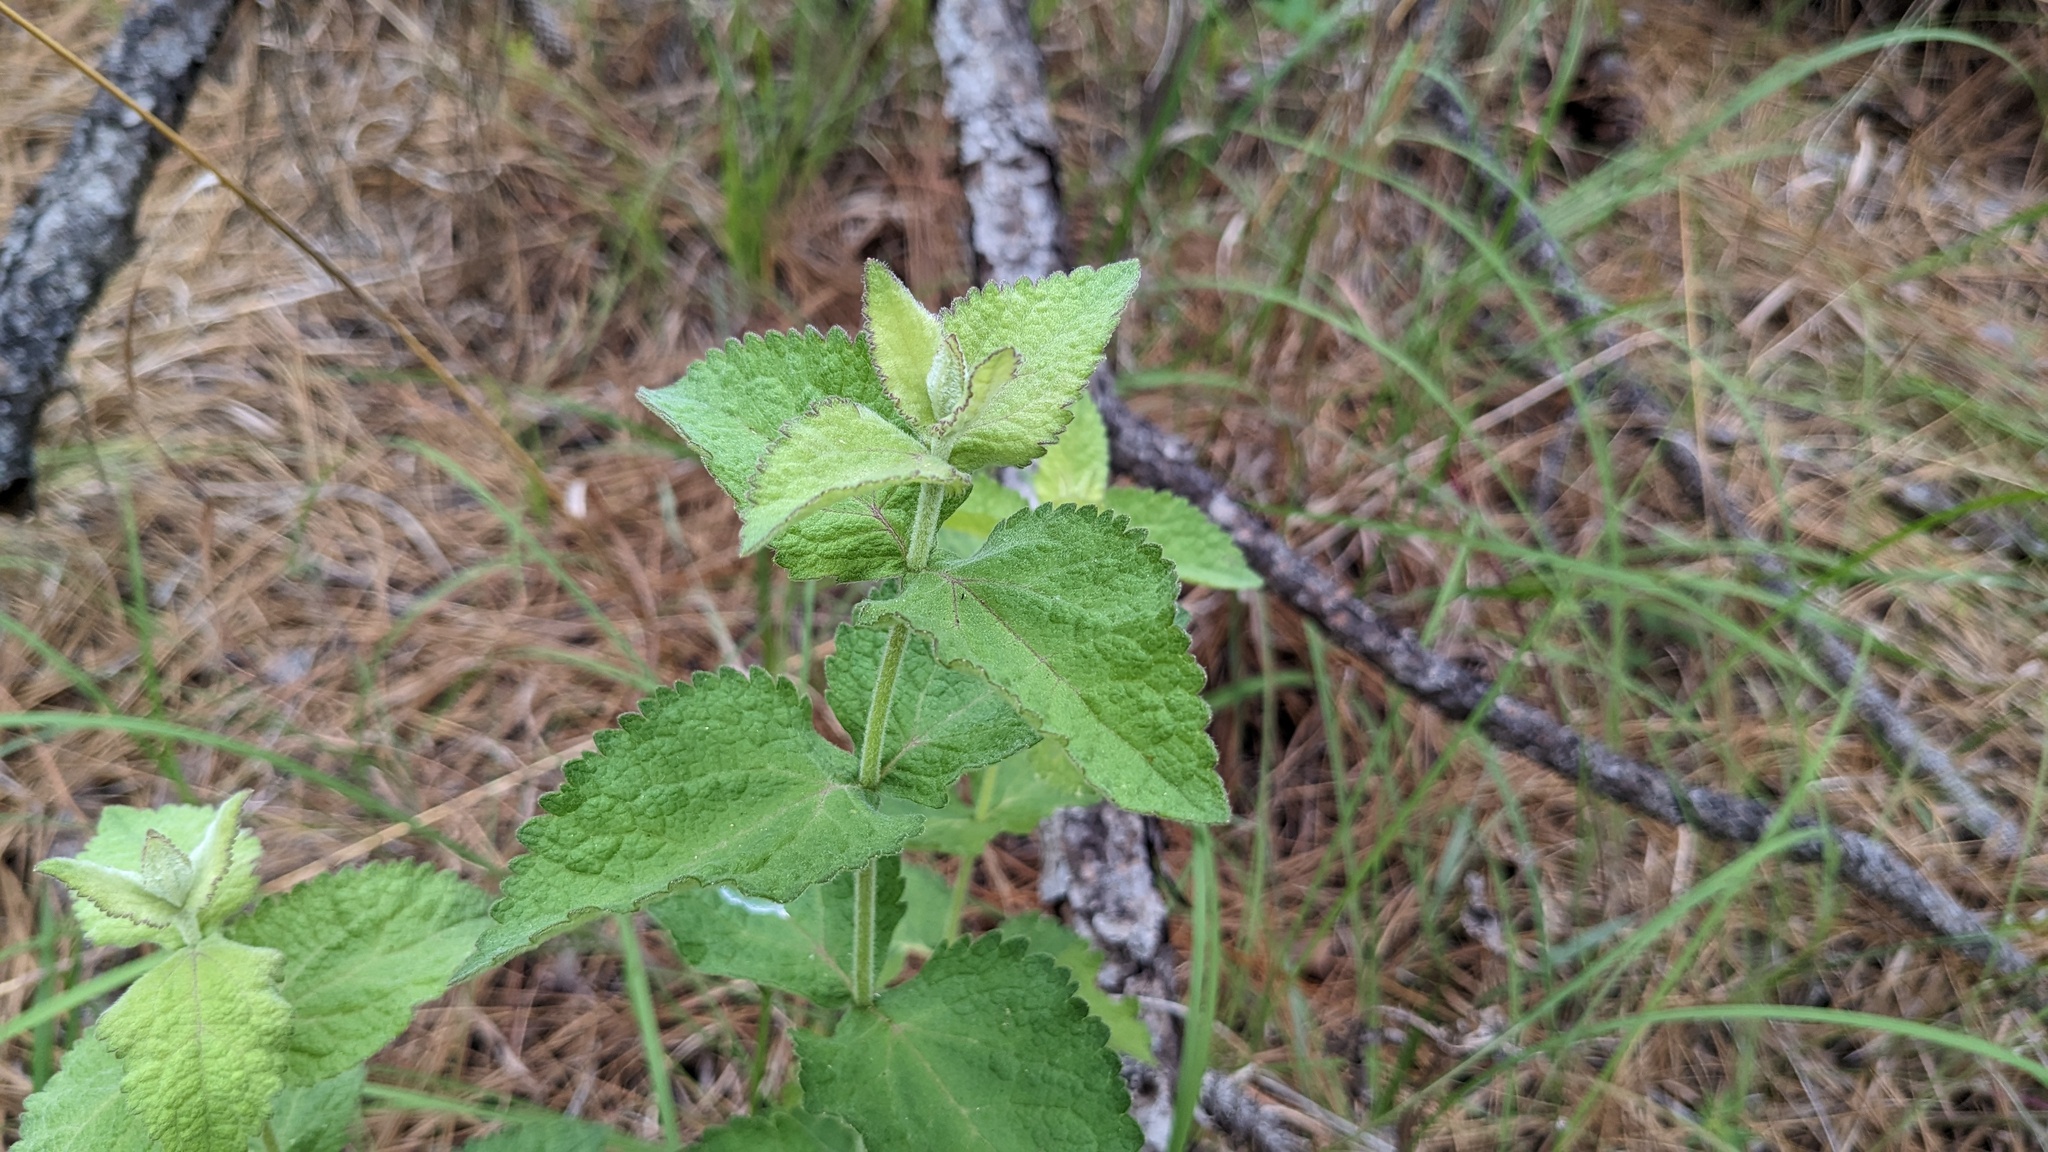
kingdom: Plantae
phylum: Tracheophyta
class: Magnoliopsida
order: Asterales
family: Asteraceae
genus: Eupatorium
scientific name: Eupatorium rotundifolium
